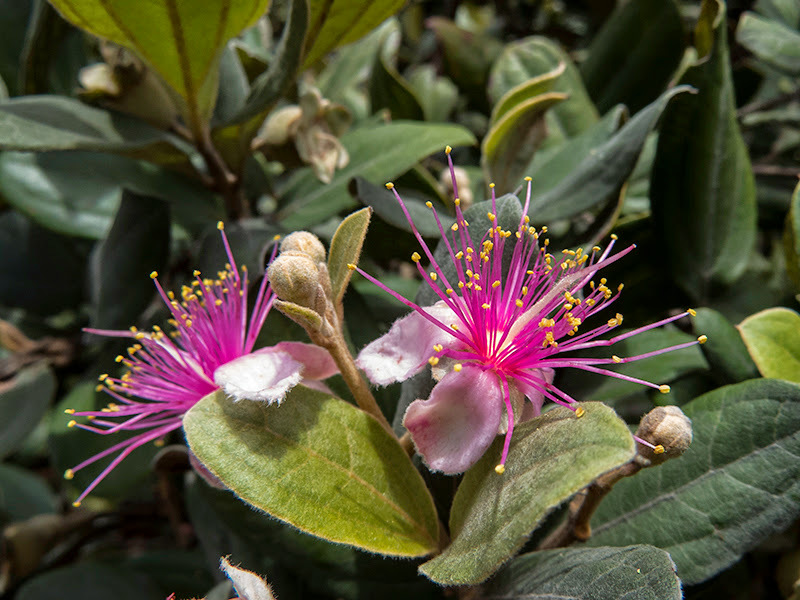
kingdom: Plantae
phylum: Tracheophyta
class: Magnoliopsida
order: Myrtales
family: Myrtaceae
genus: Rhodomyrtus
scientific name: Rhodomyrtus tomentosa
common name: Rose myrtle
